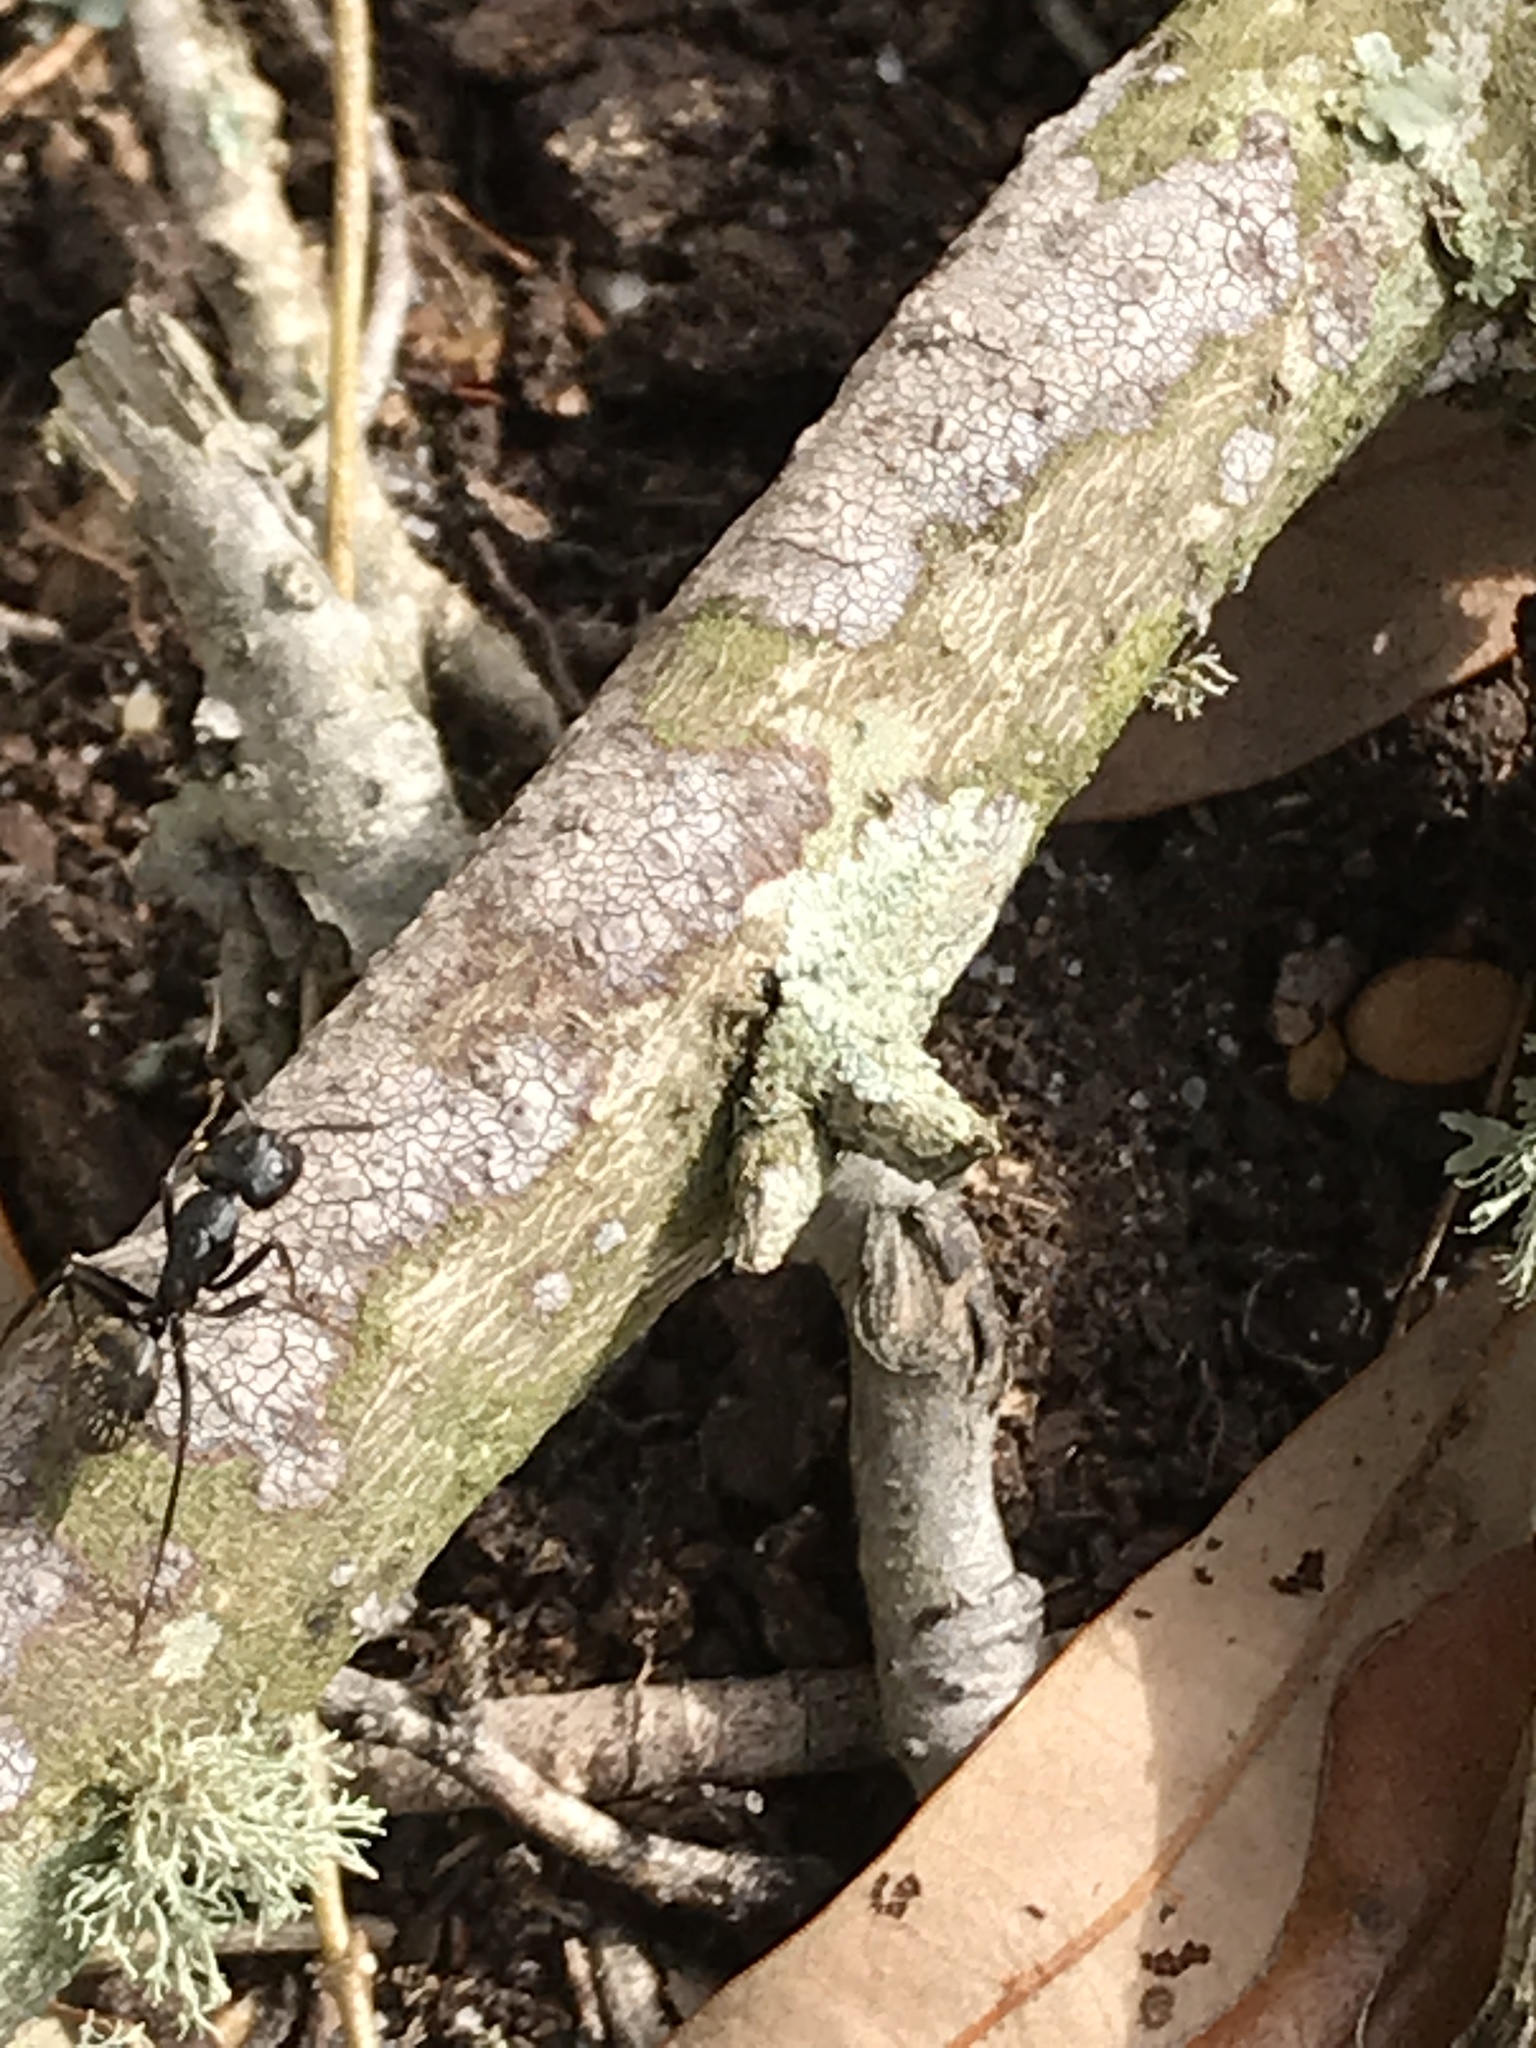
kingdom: Animalia
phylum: Arthropoda
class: Insecta
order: Hymenoptera
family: Formicidae
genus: Camponotus
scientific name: Camponotus pennsylvanicus
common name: Black carpenter ant
